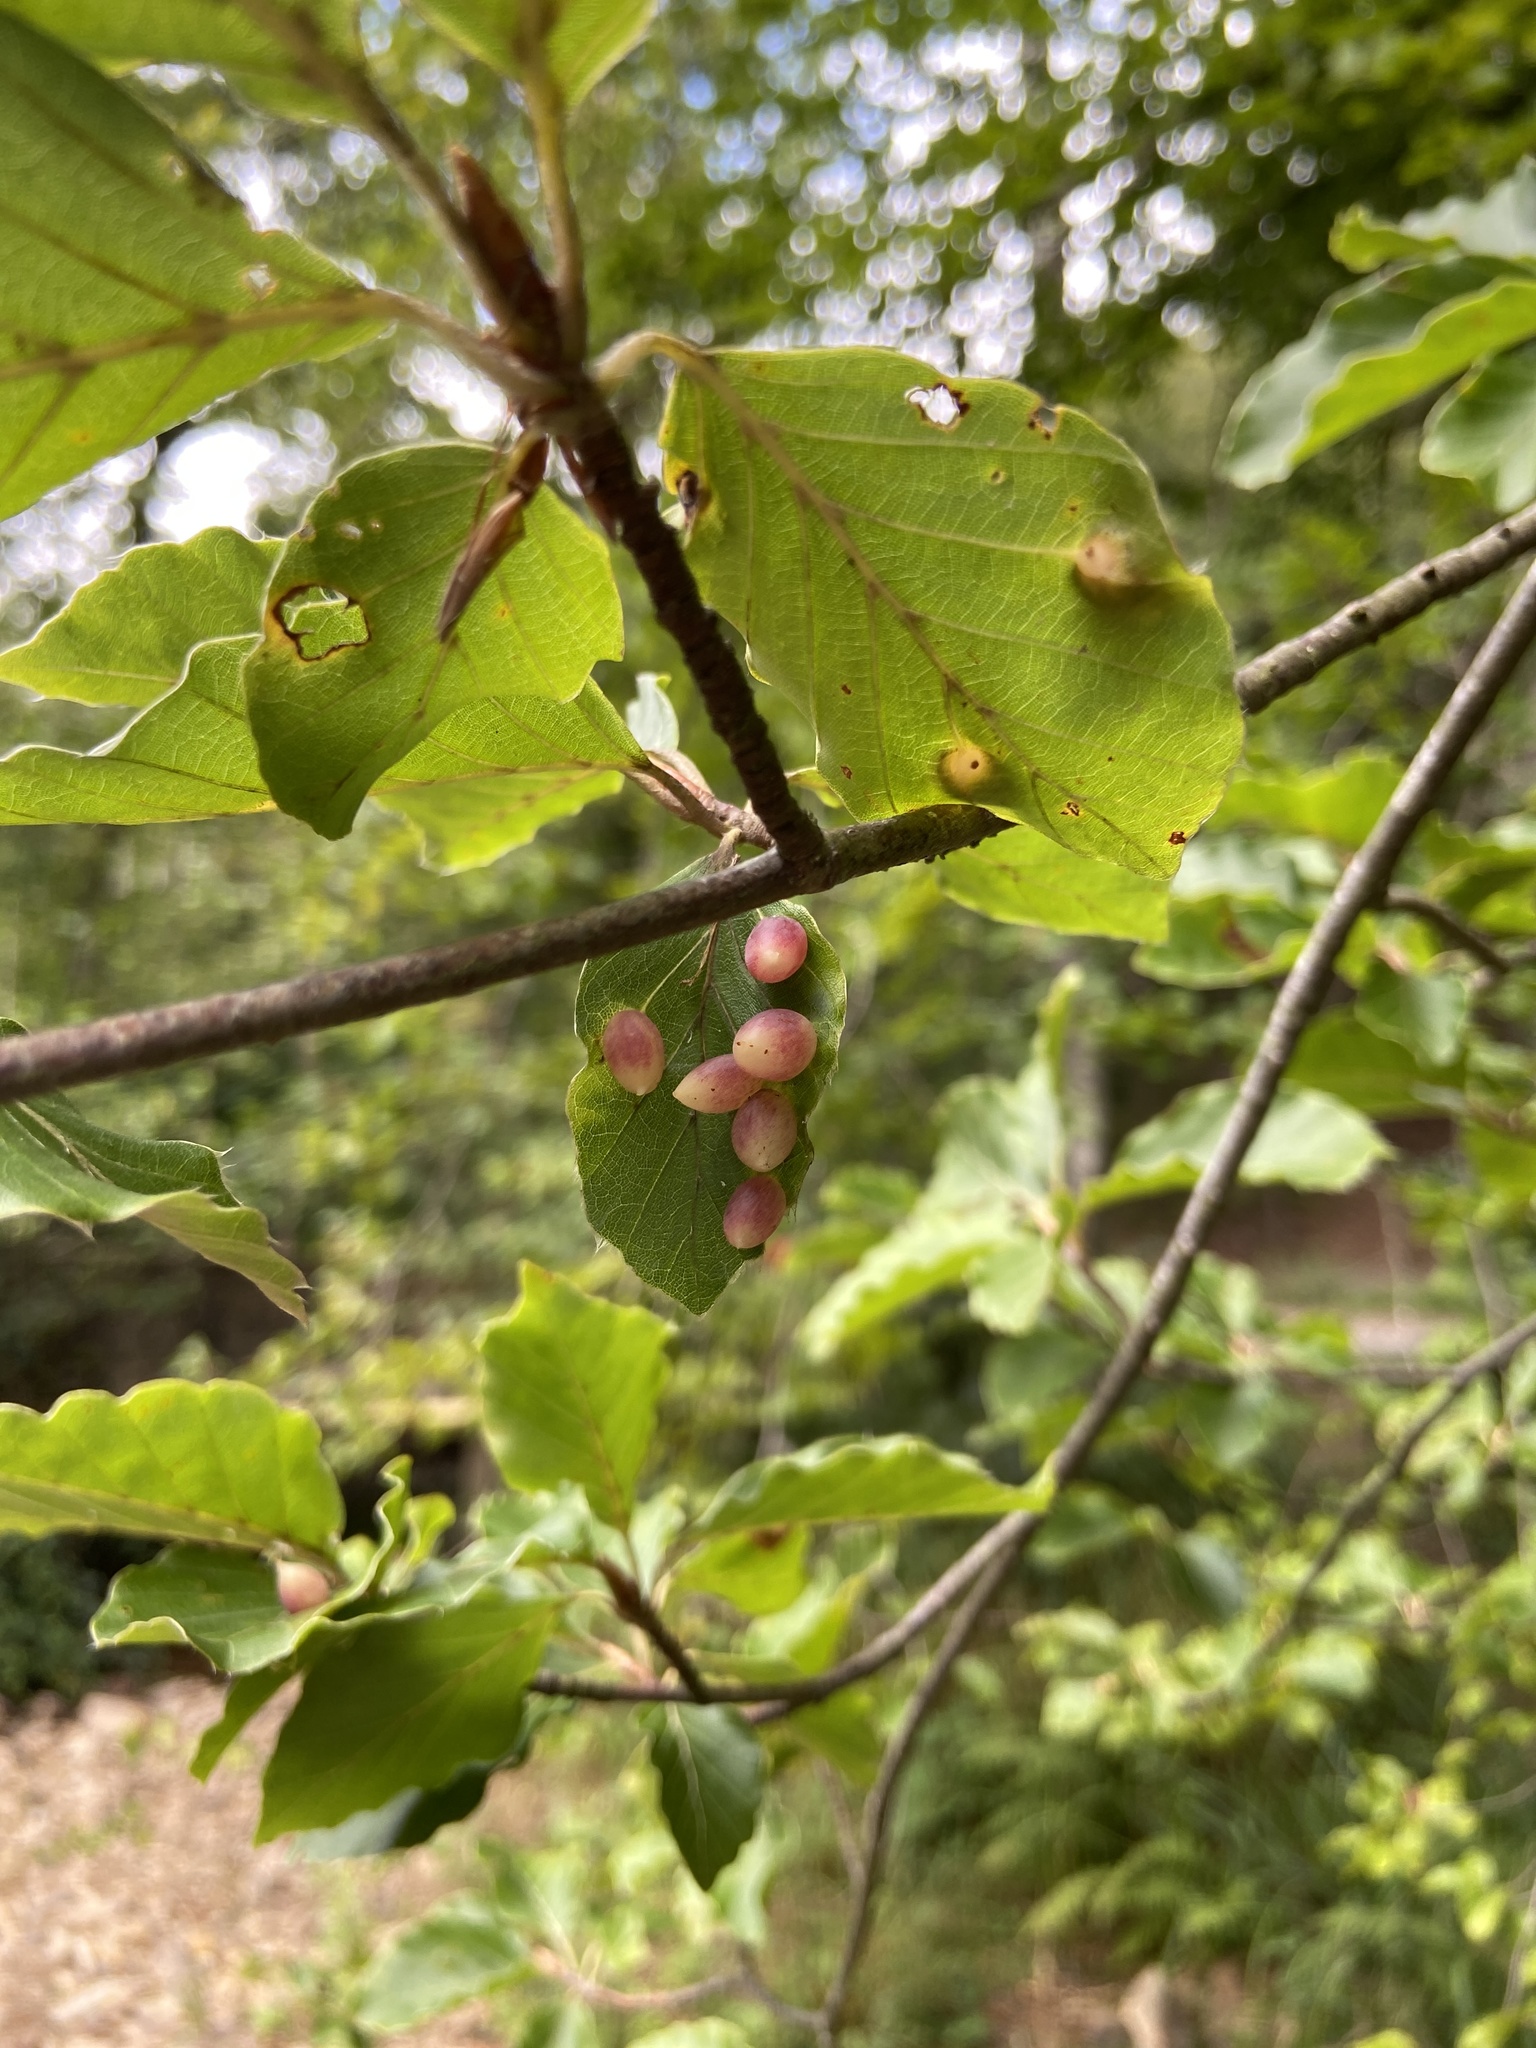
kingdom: Animalia
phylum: Arthropoda
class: Insecta
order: Diptera
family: Cecidomyiidae
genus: Mikiola
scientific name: Mikiola fagi
